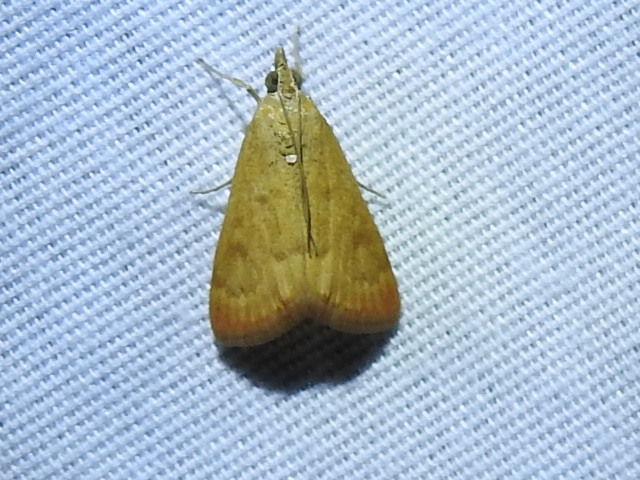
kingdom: Animalia
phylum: Arthropoda
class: Insecta
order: Lepidoptera
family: Crambidae
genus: Achyra
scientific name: Achyra rantalis
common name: Garden webworm
